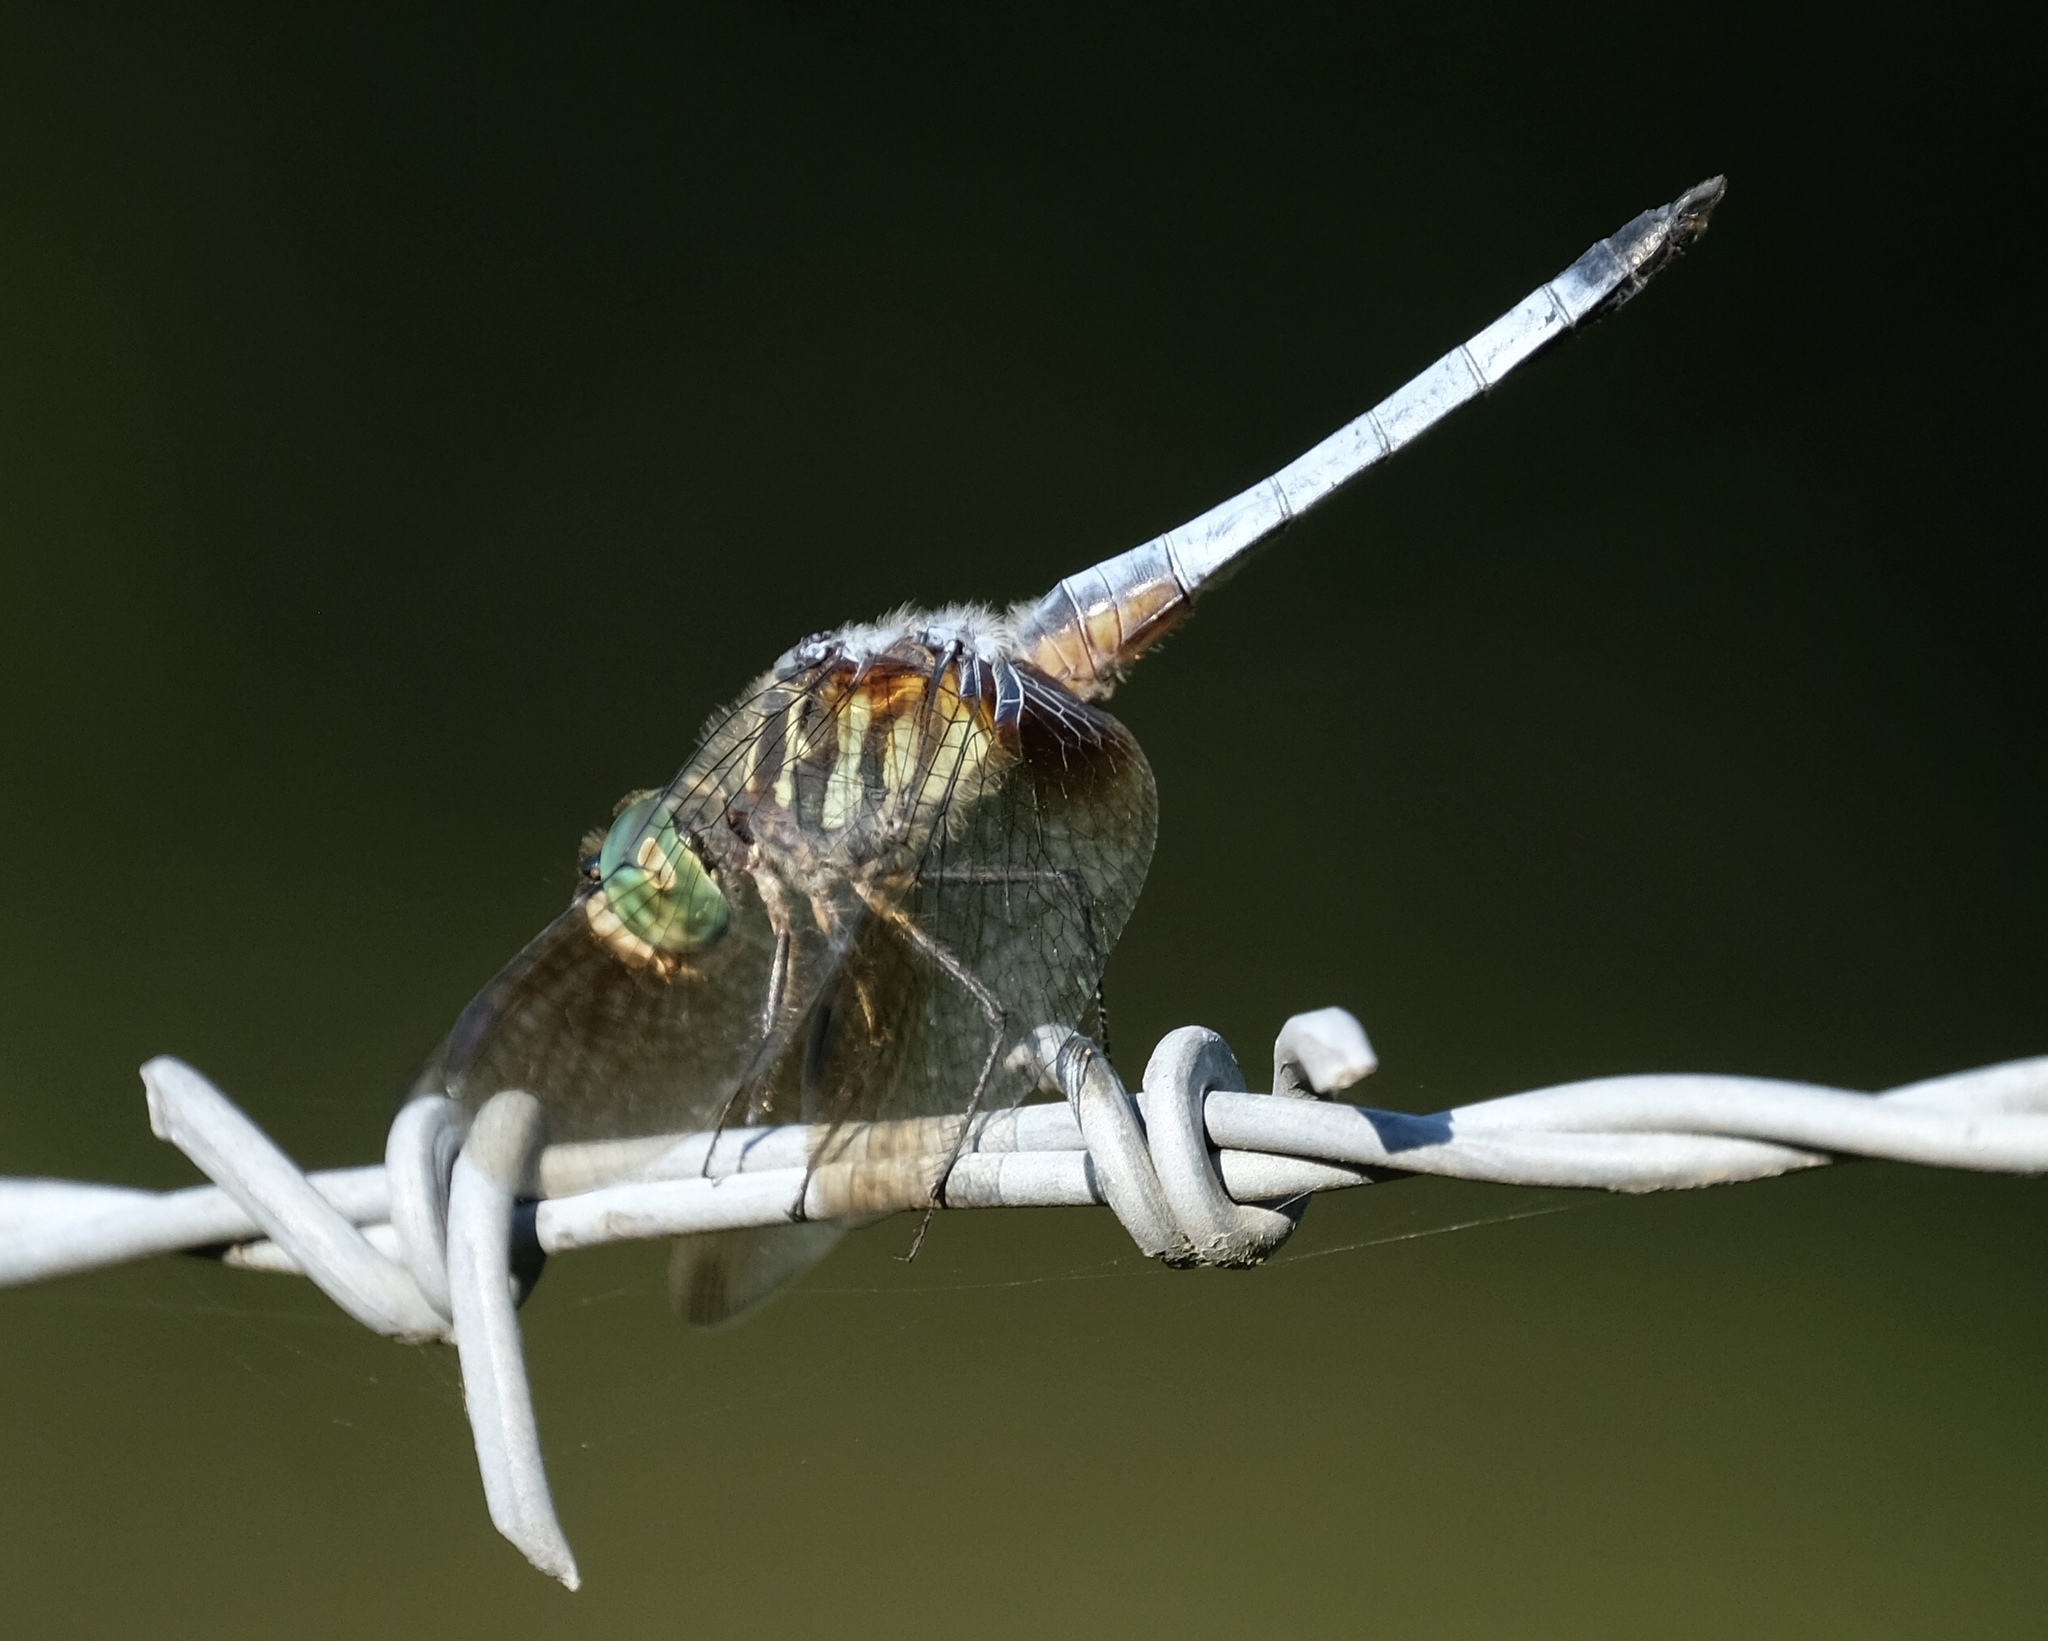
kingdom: Animalia
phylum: Arthropoda
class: Insecta
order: Odonata
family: Libellulidae
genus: Pachydiplax
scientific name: Pachydiplax longipennis
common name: Blue dasher
